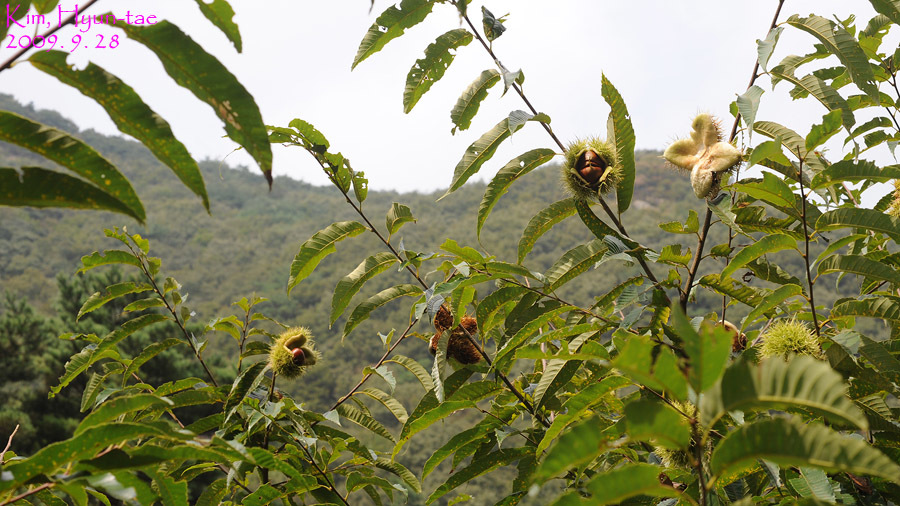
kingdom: Plantae
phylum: Tracheophyta
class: Magnoliopsida
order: Fagales
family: Fagaceae
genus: Castanea
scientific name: Castanea crenata
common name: Japanese chestnut
